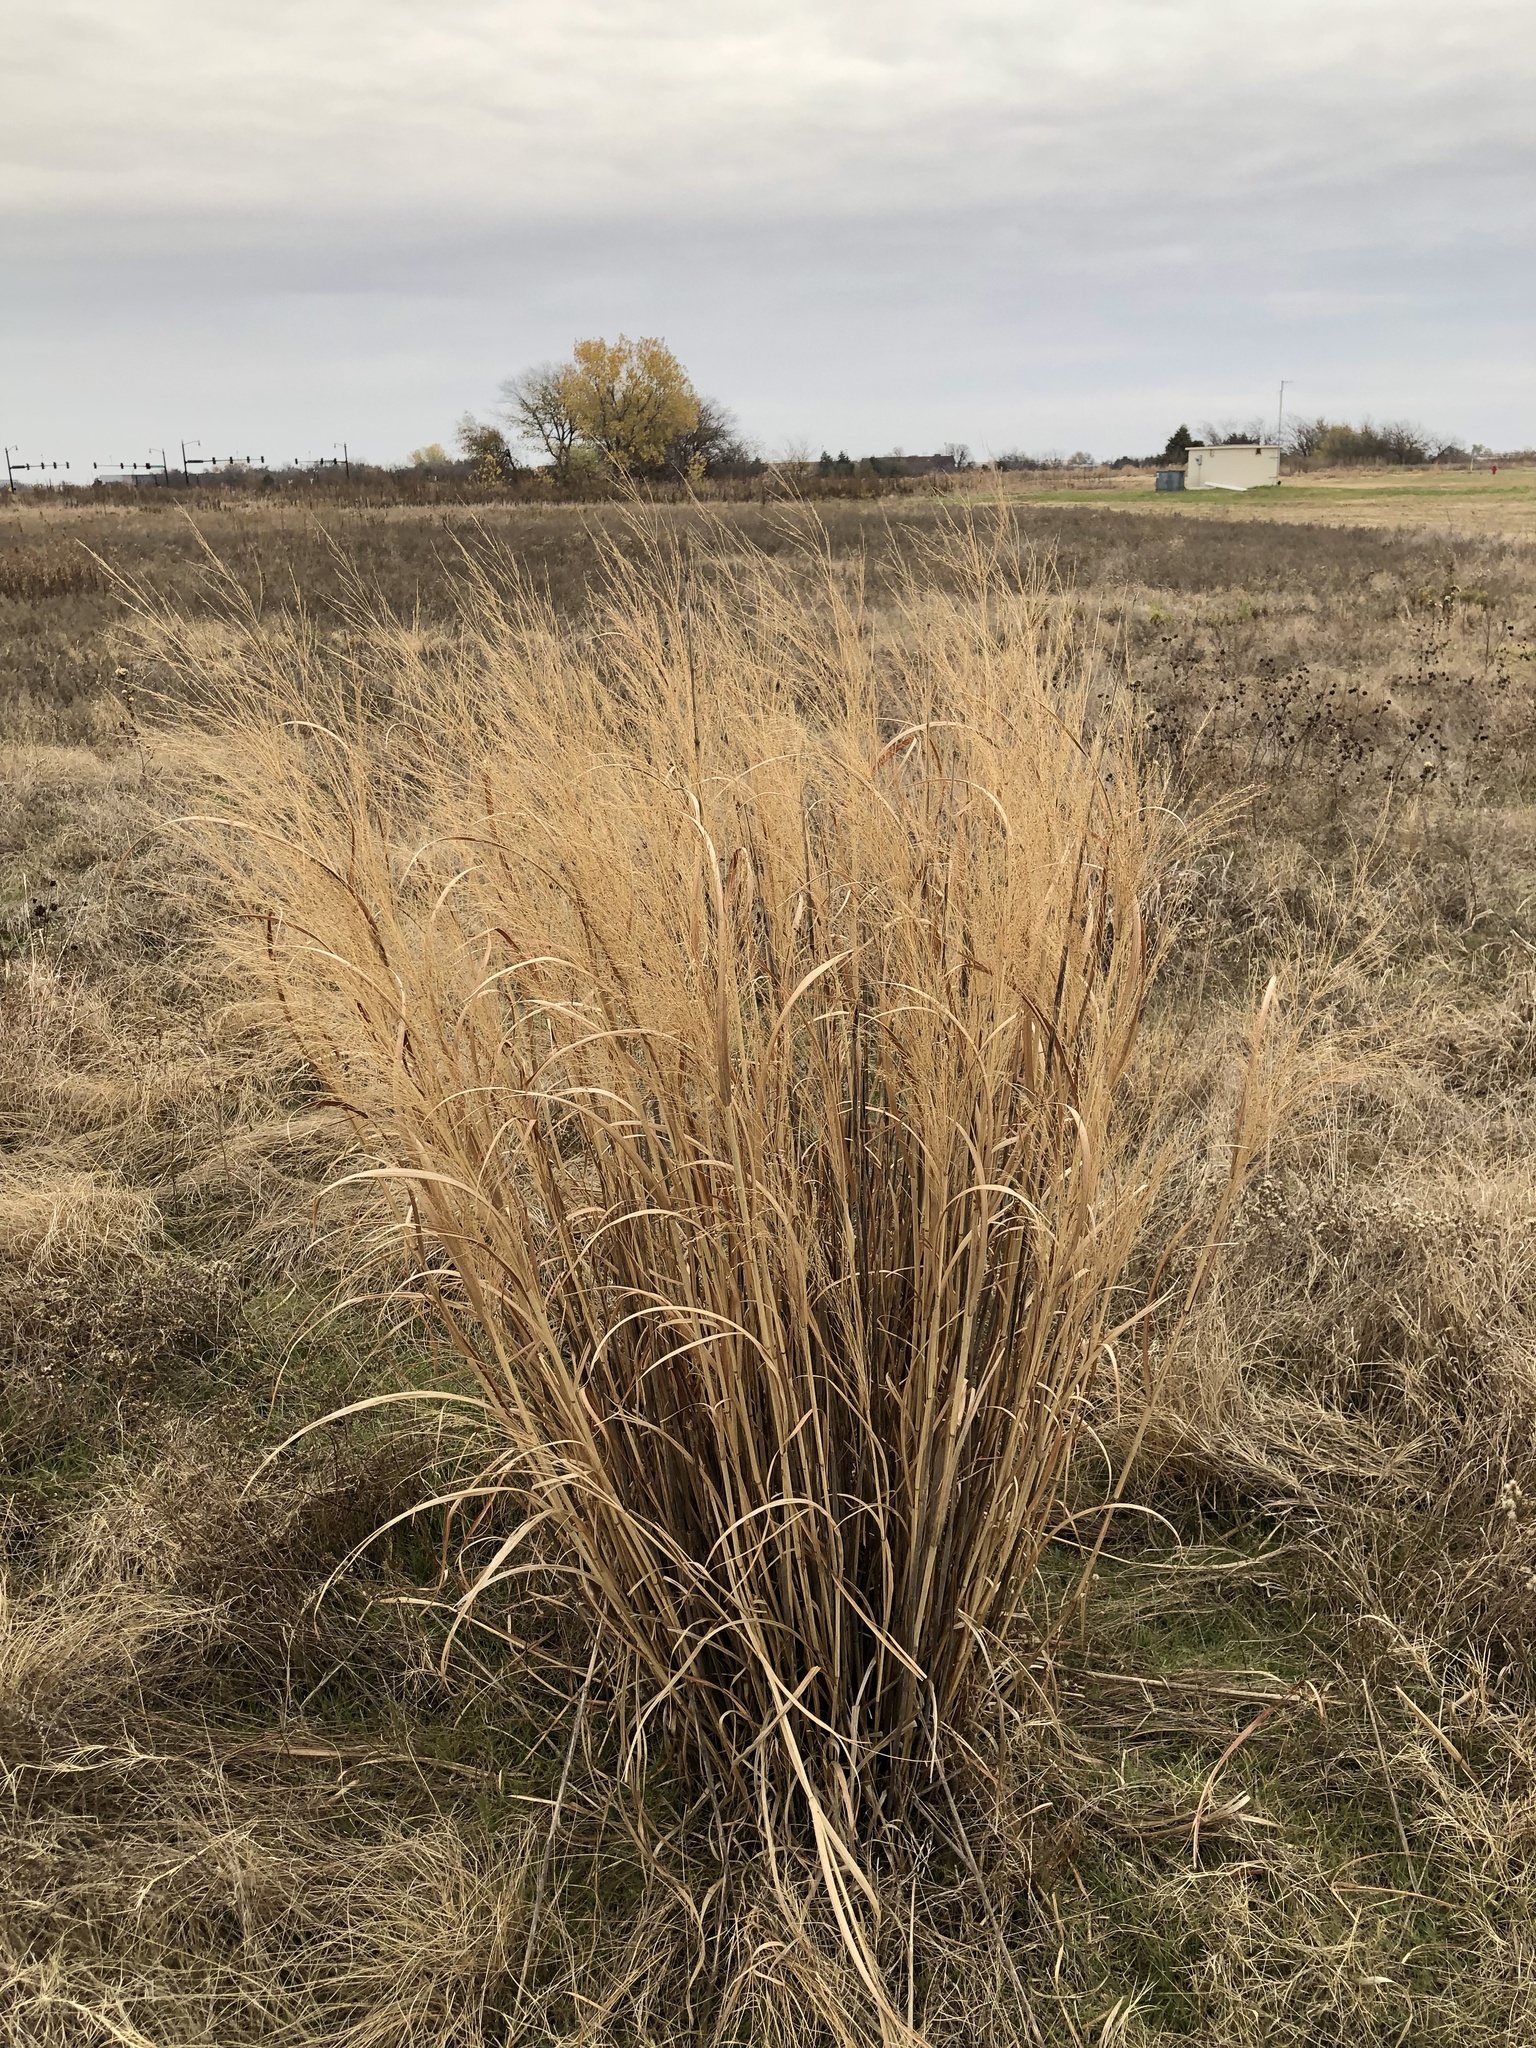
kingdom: Plantae
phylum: Tracheophyta
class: Liliopsida
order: Poales
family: Poaceae
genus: Panicum
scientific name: Panicum virgatum
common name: Switchgrass
